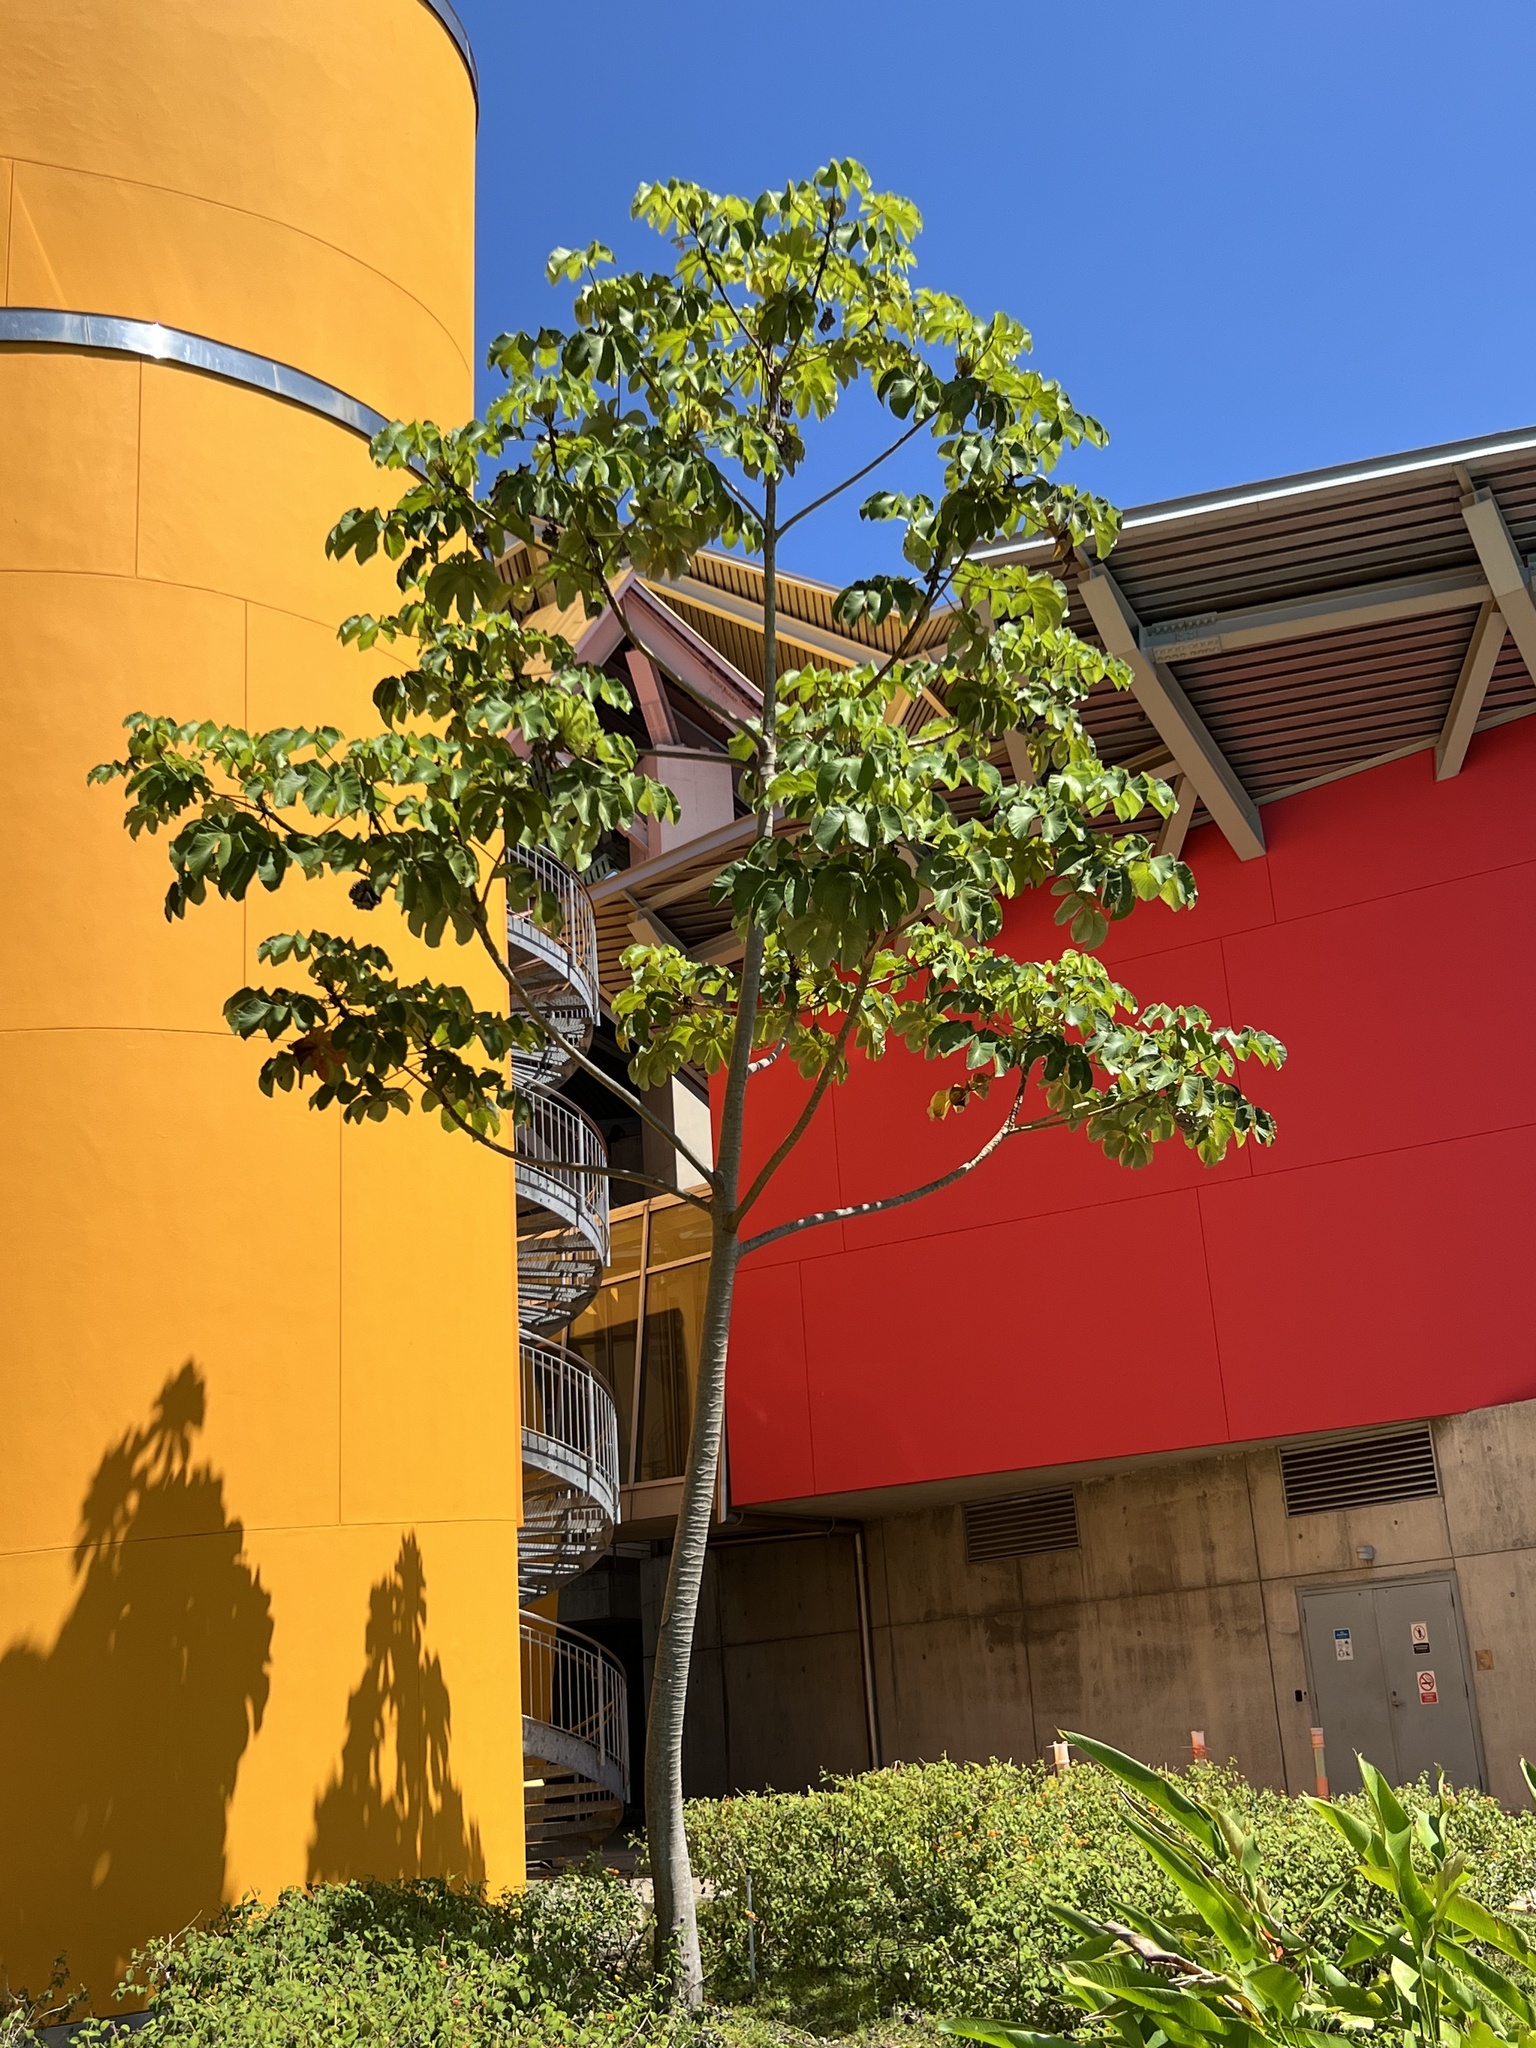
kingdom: Plantae
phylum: Tracheophyta
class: Magnoliopsida
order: Rosales
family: Urticaceae
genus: Cecropia
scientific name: Cecropia peltata
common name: Trumpet-tree
